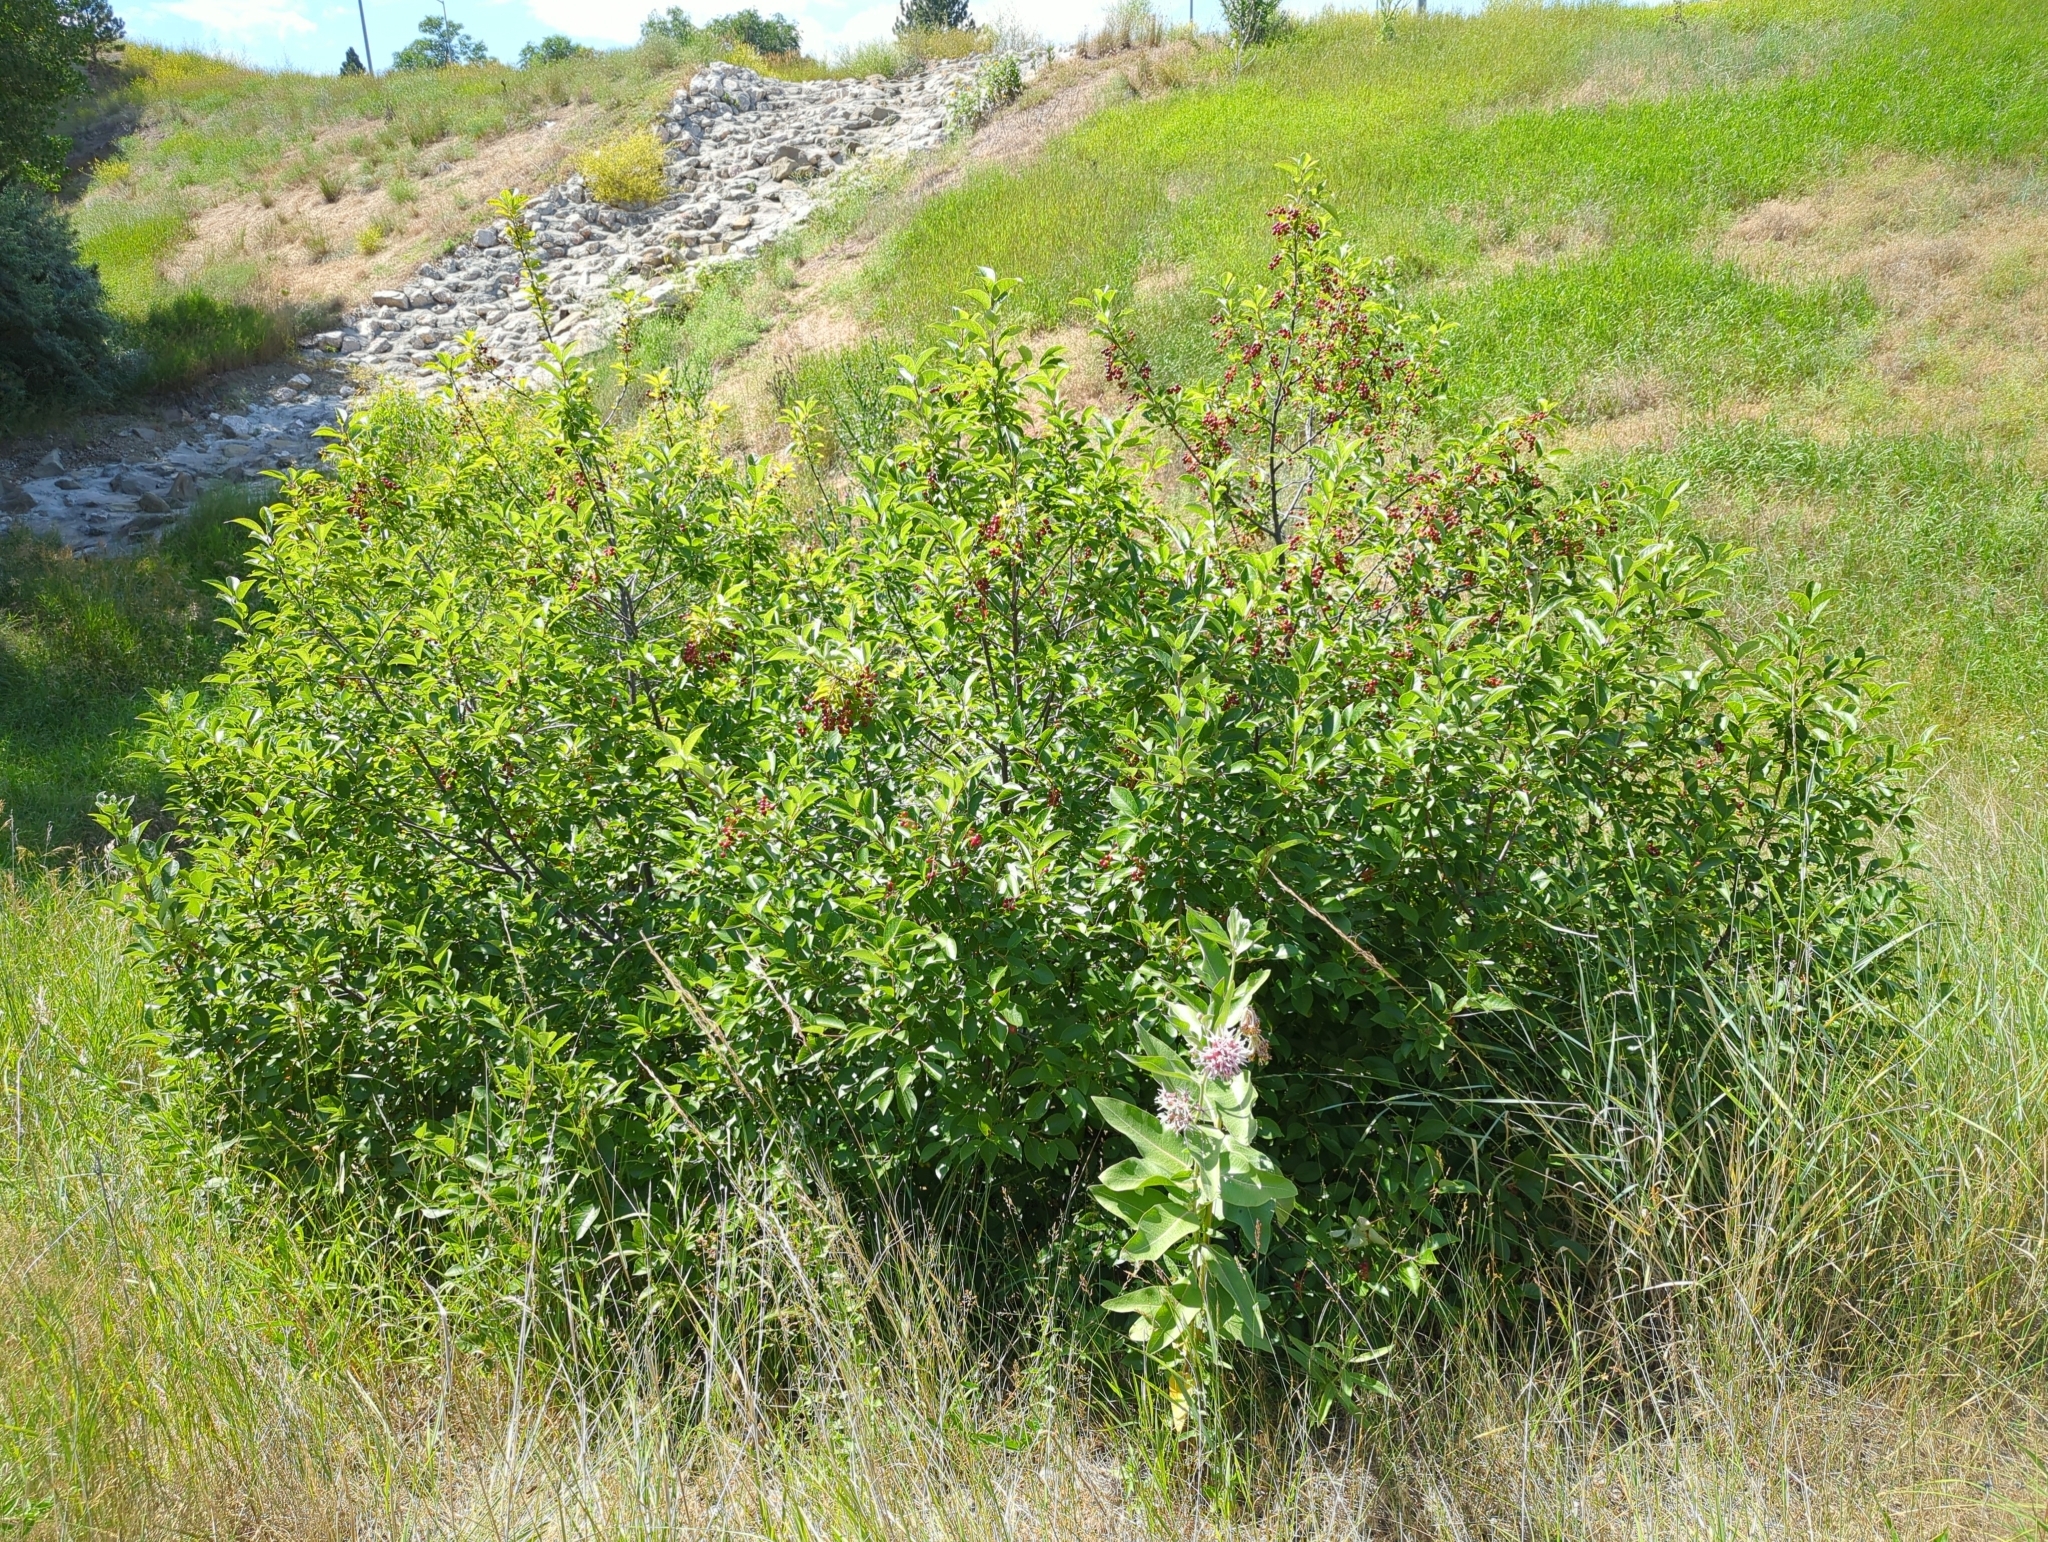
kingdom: Plantae
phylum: Tracheophyta
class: Magnoliopsida
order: Rosales
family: Rosaceae
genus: Prunus
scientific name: Prunus virginiana
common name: Chokecherry
